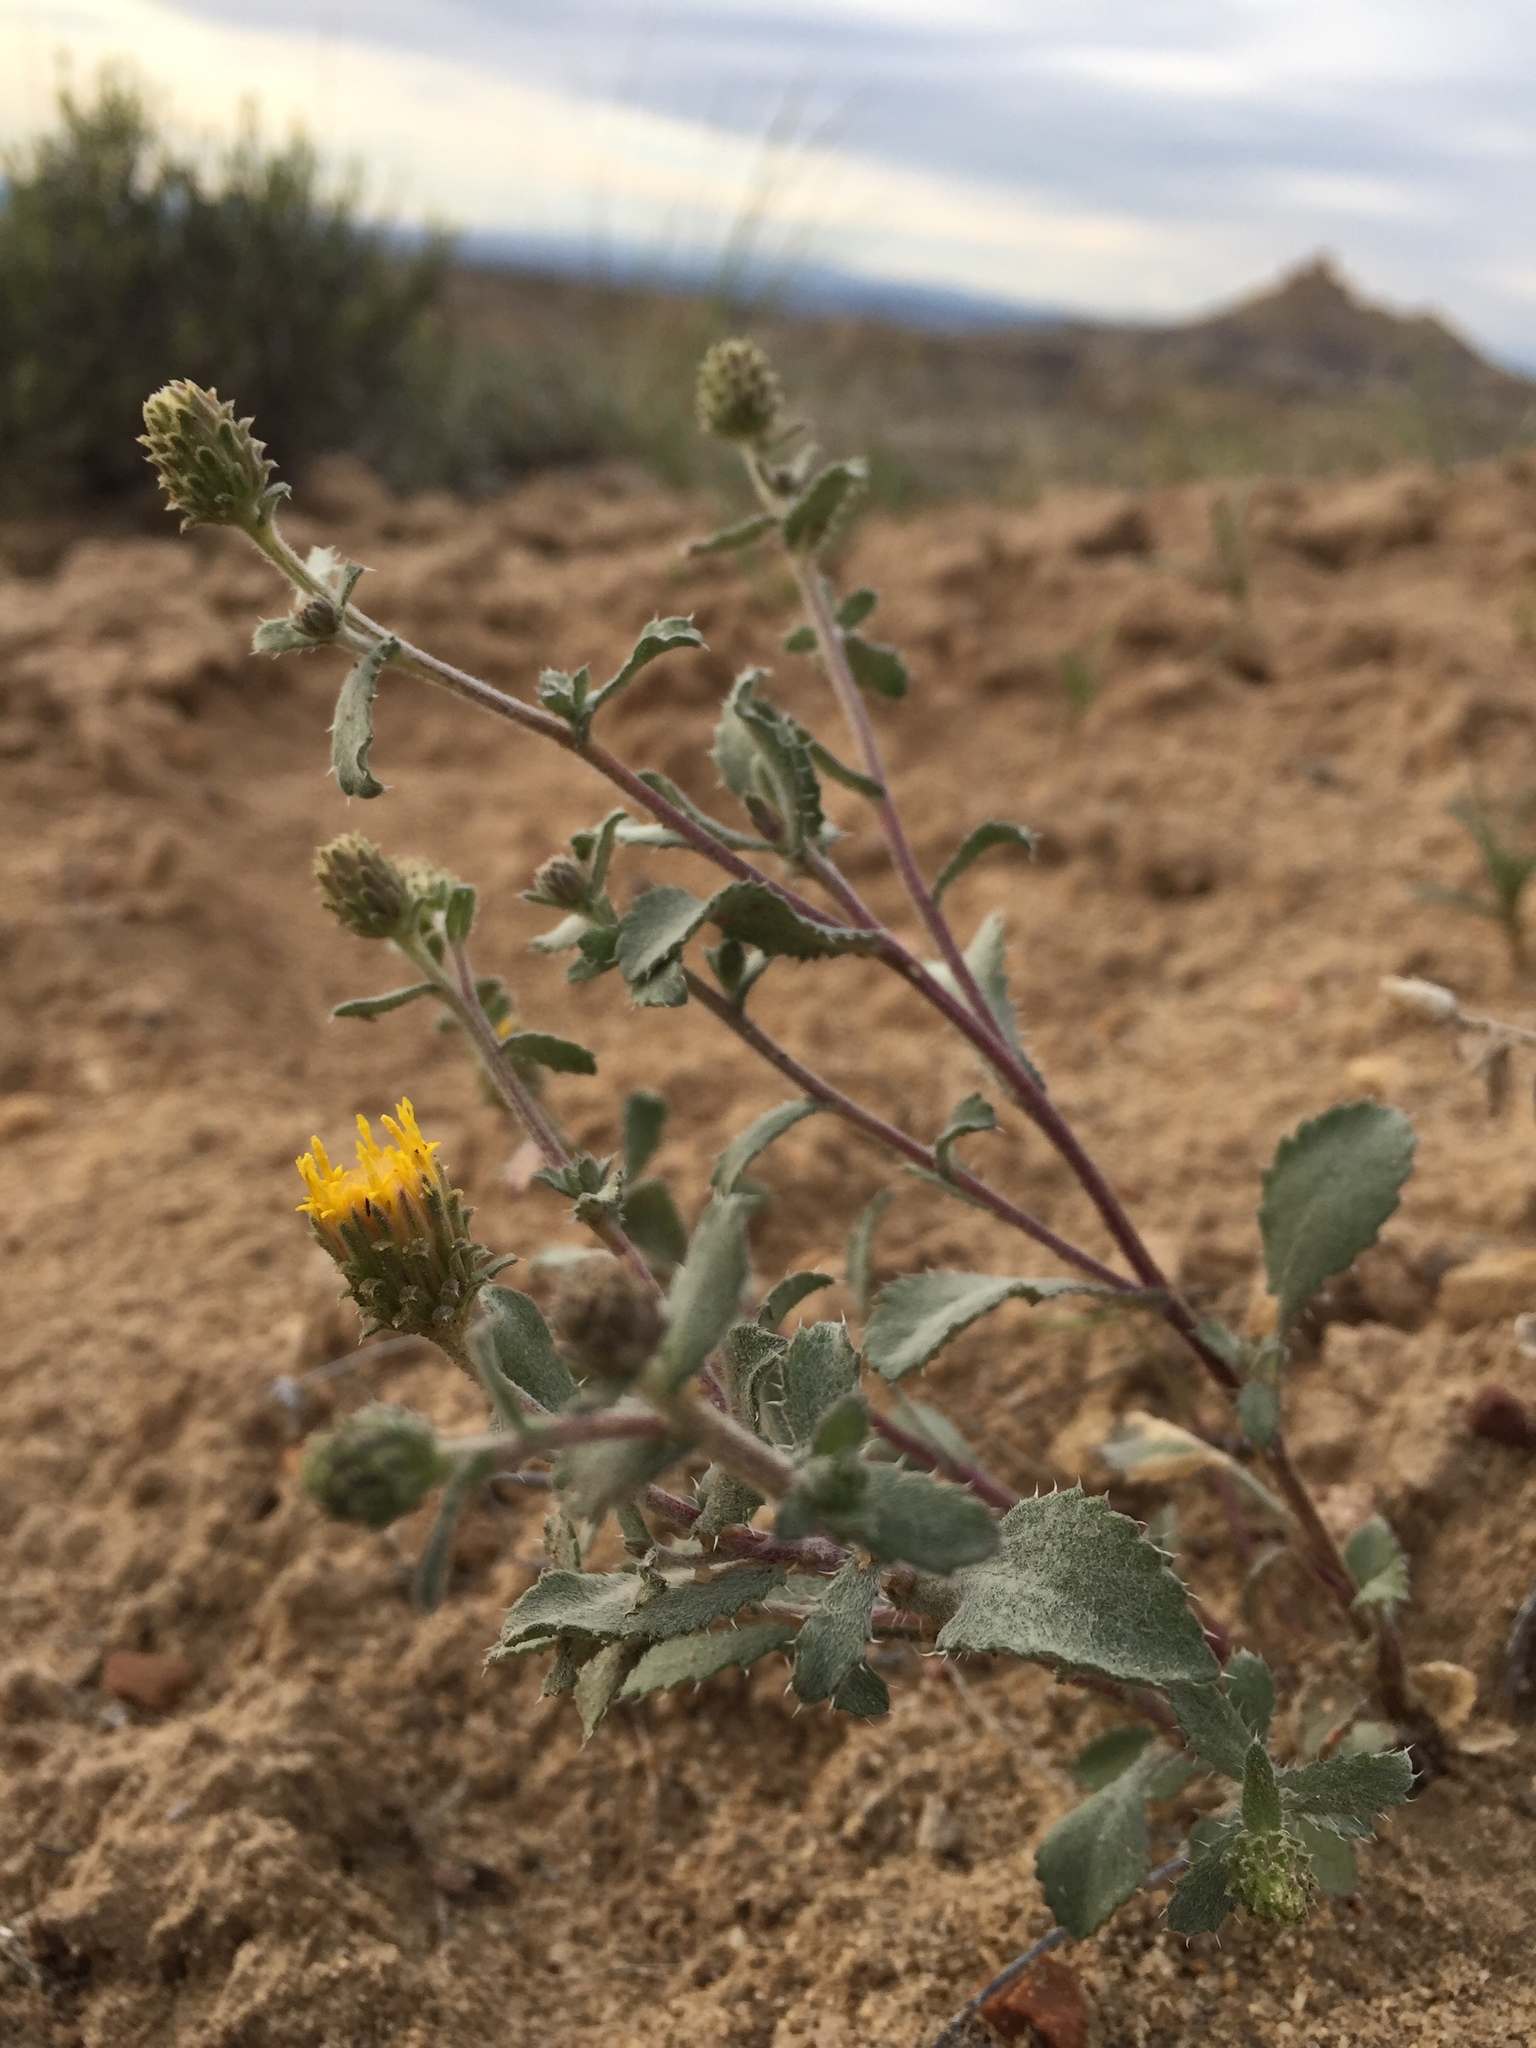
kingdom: Plantae
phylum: Tracheophyta
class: Magnoliopsida
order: Asterales
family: Asteraceae
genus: Xanthisma
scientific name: Xanthisma grindelioides
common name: Goldenweed
